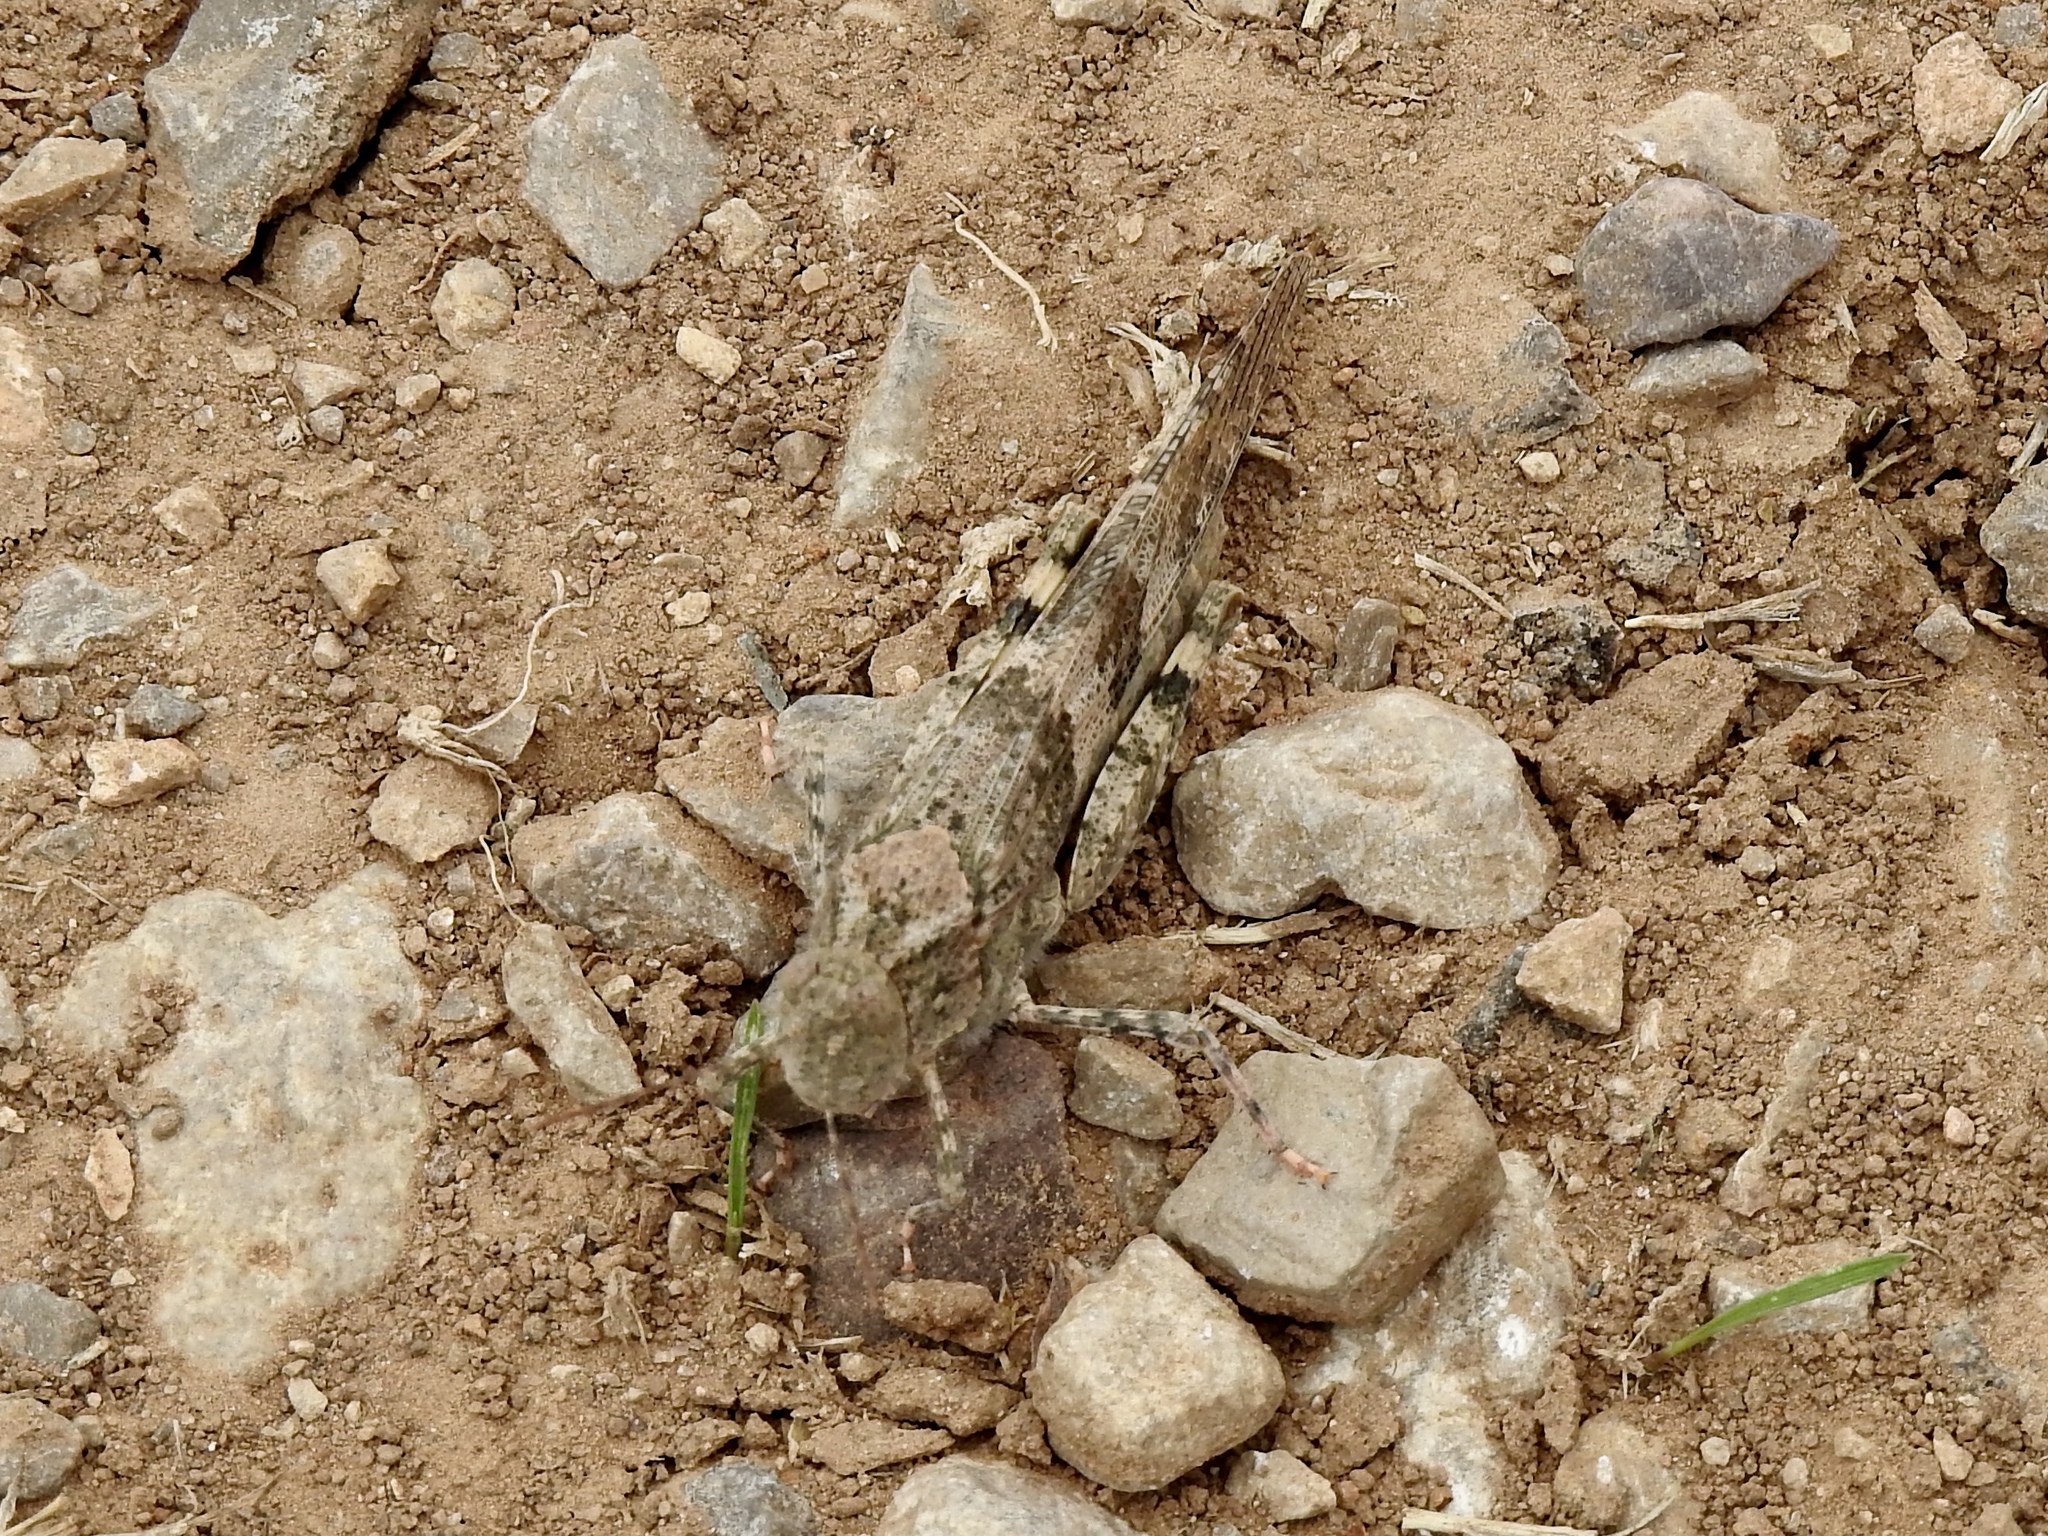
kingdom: Animalia
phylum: Arthropoda
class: Insecta
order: Orthoptera
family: Acrididae
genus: Trimerotropis
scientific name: Trimerotropis pallidipennis
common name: Pallid-winged grasshopper
